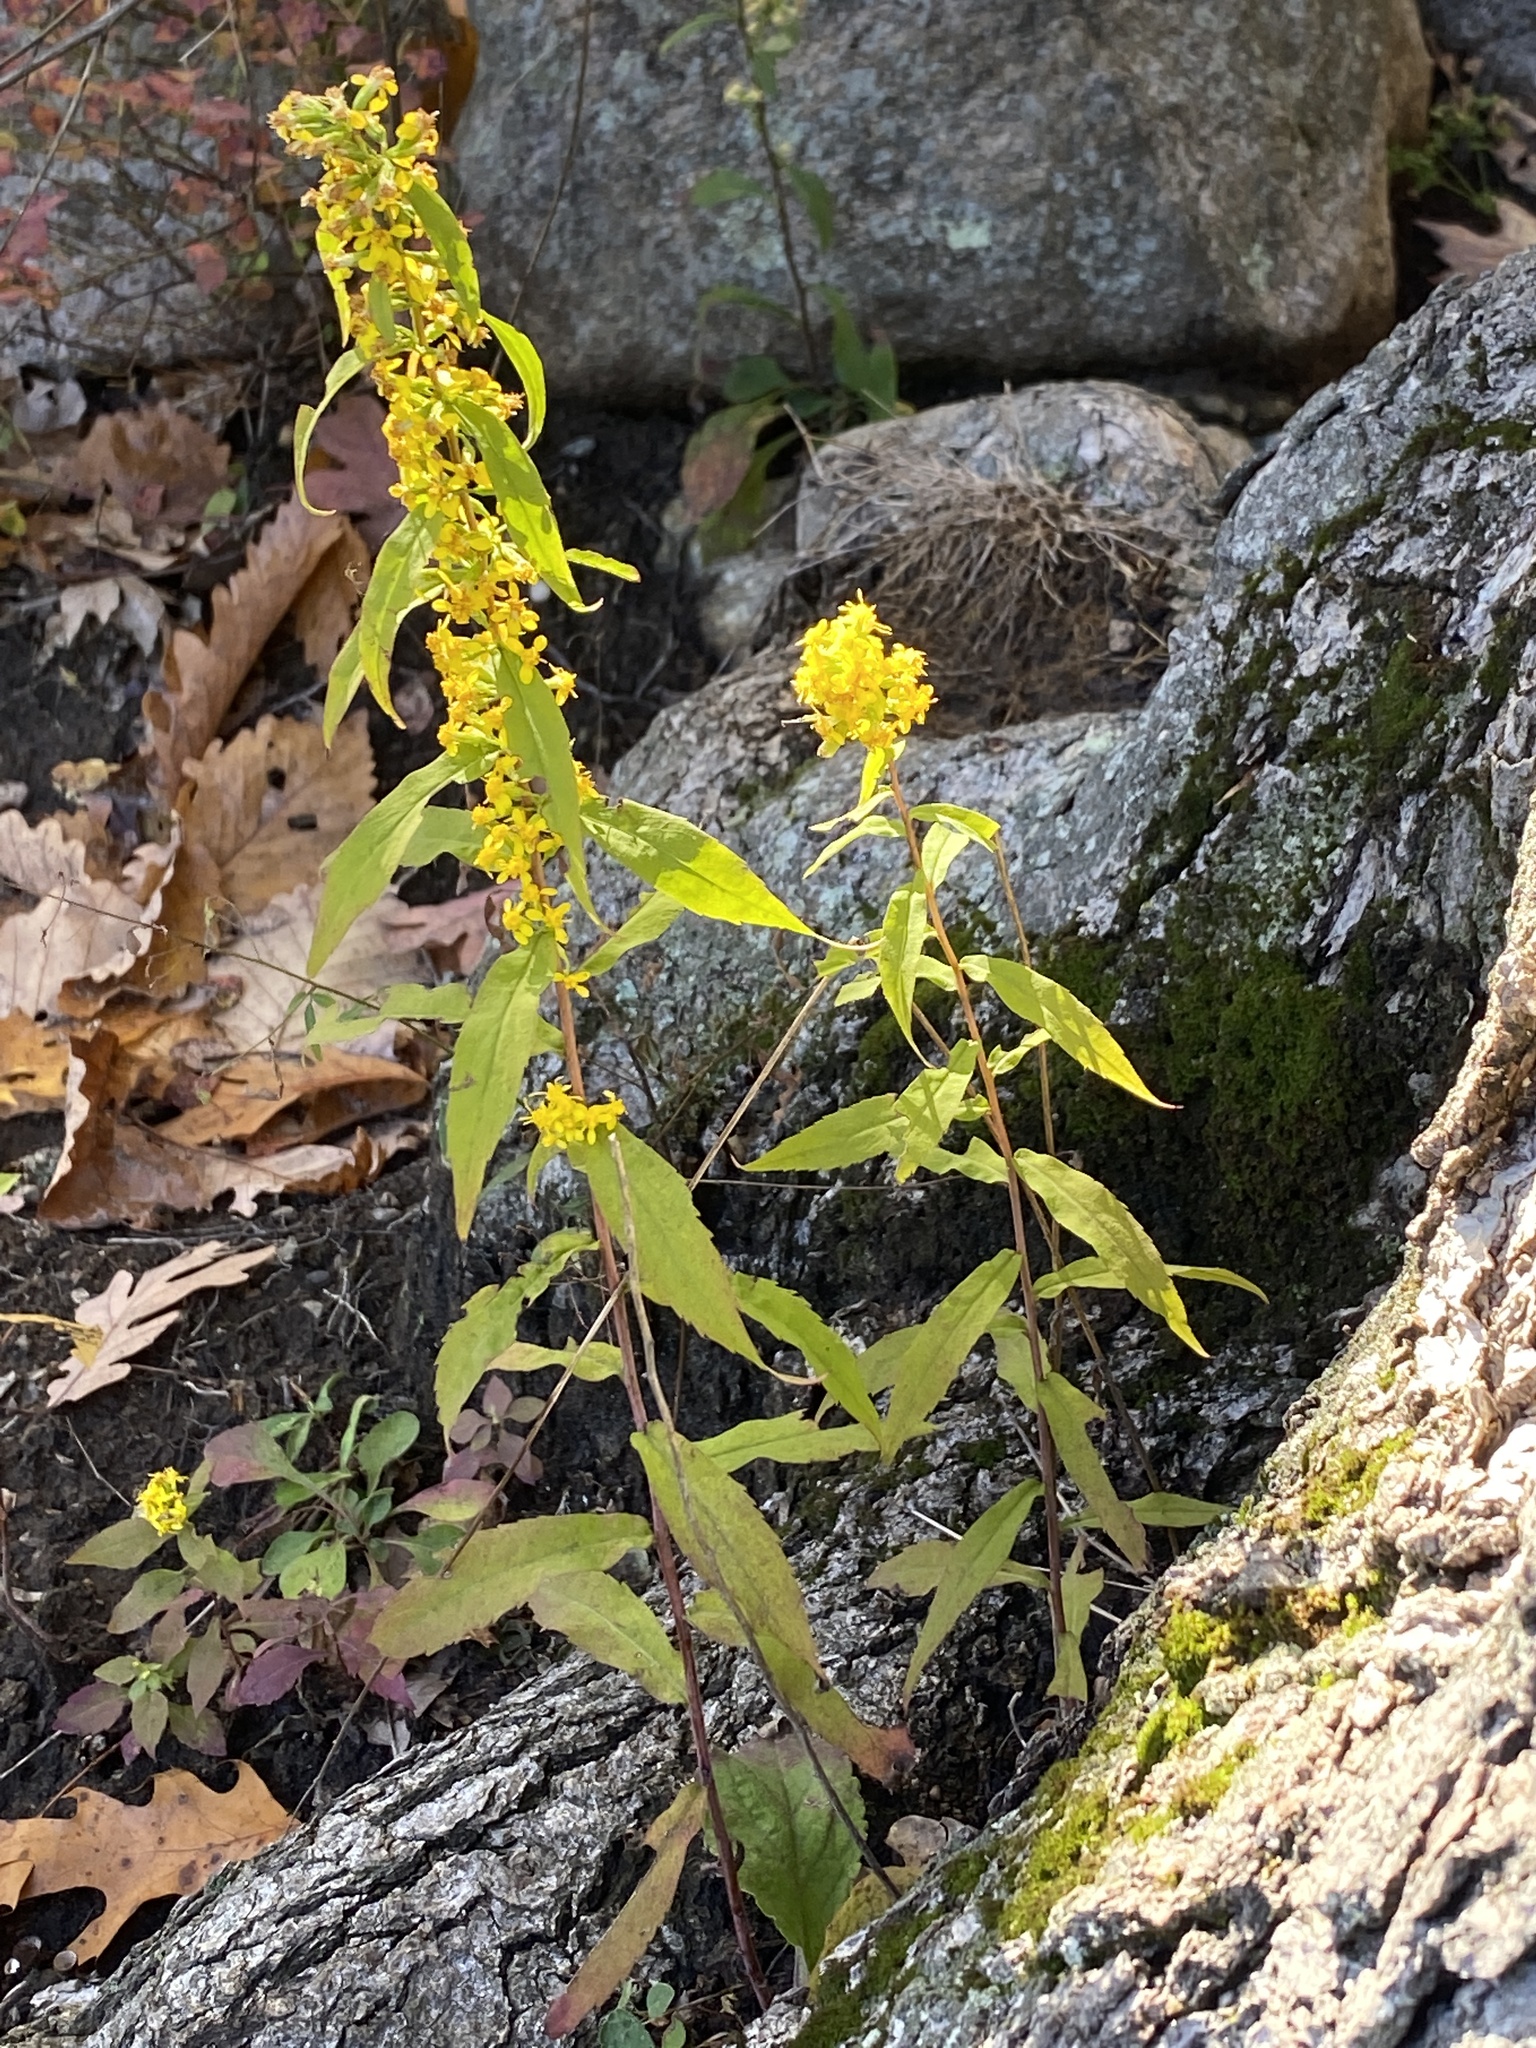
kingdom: Plantae
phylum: Tracheophyta
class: Magnoliopsida
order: Asterales
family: Asteraceae
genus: Solidago
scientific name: Solidago caesia
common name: Woodland goldenrod
